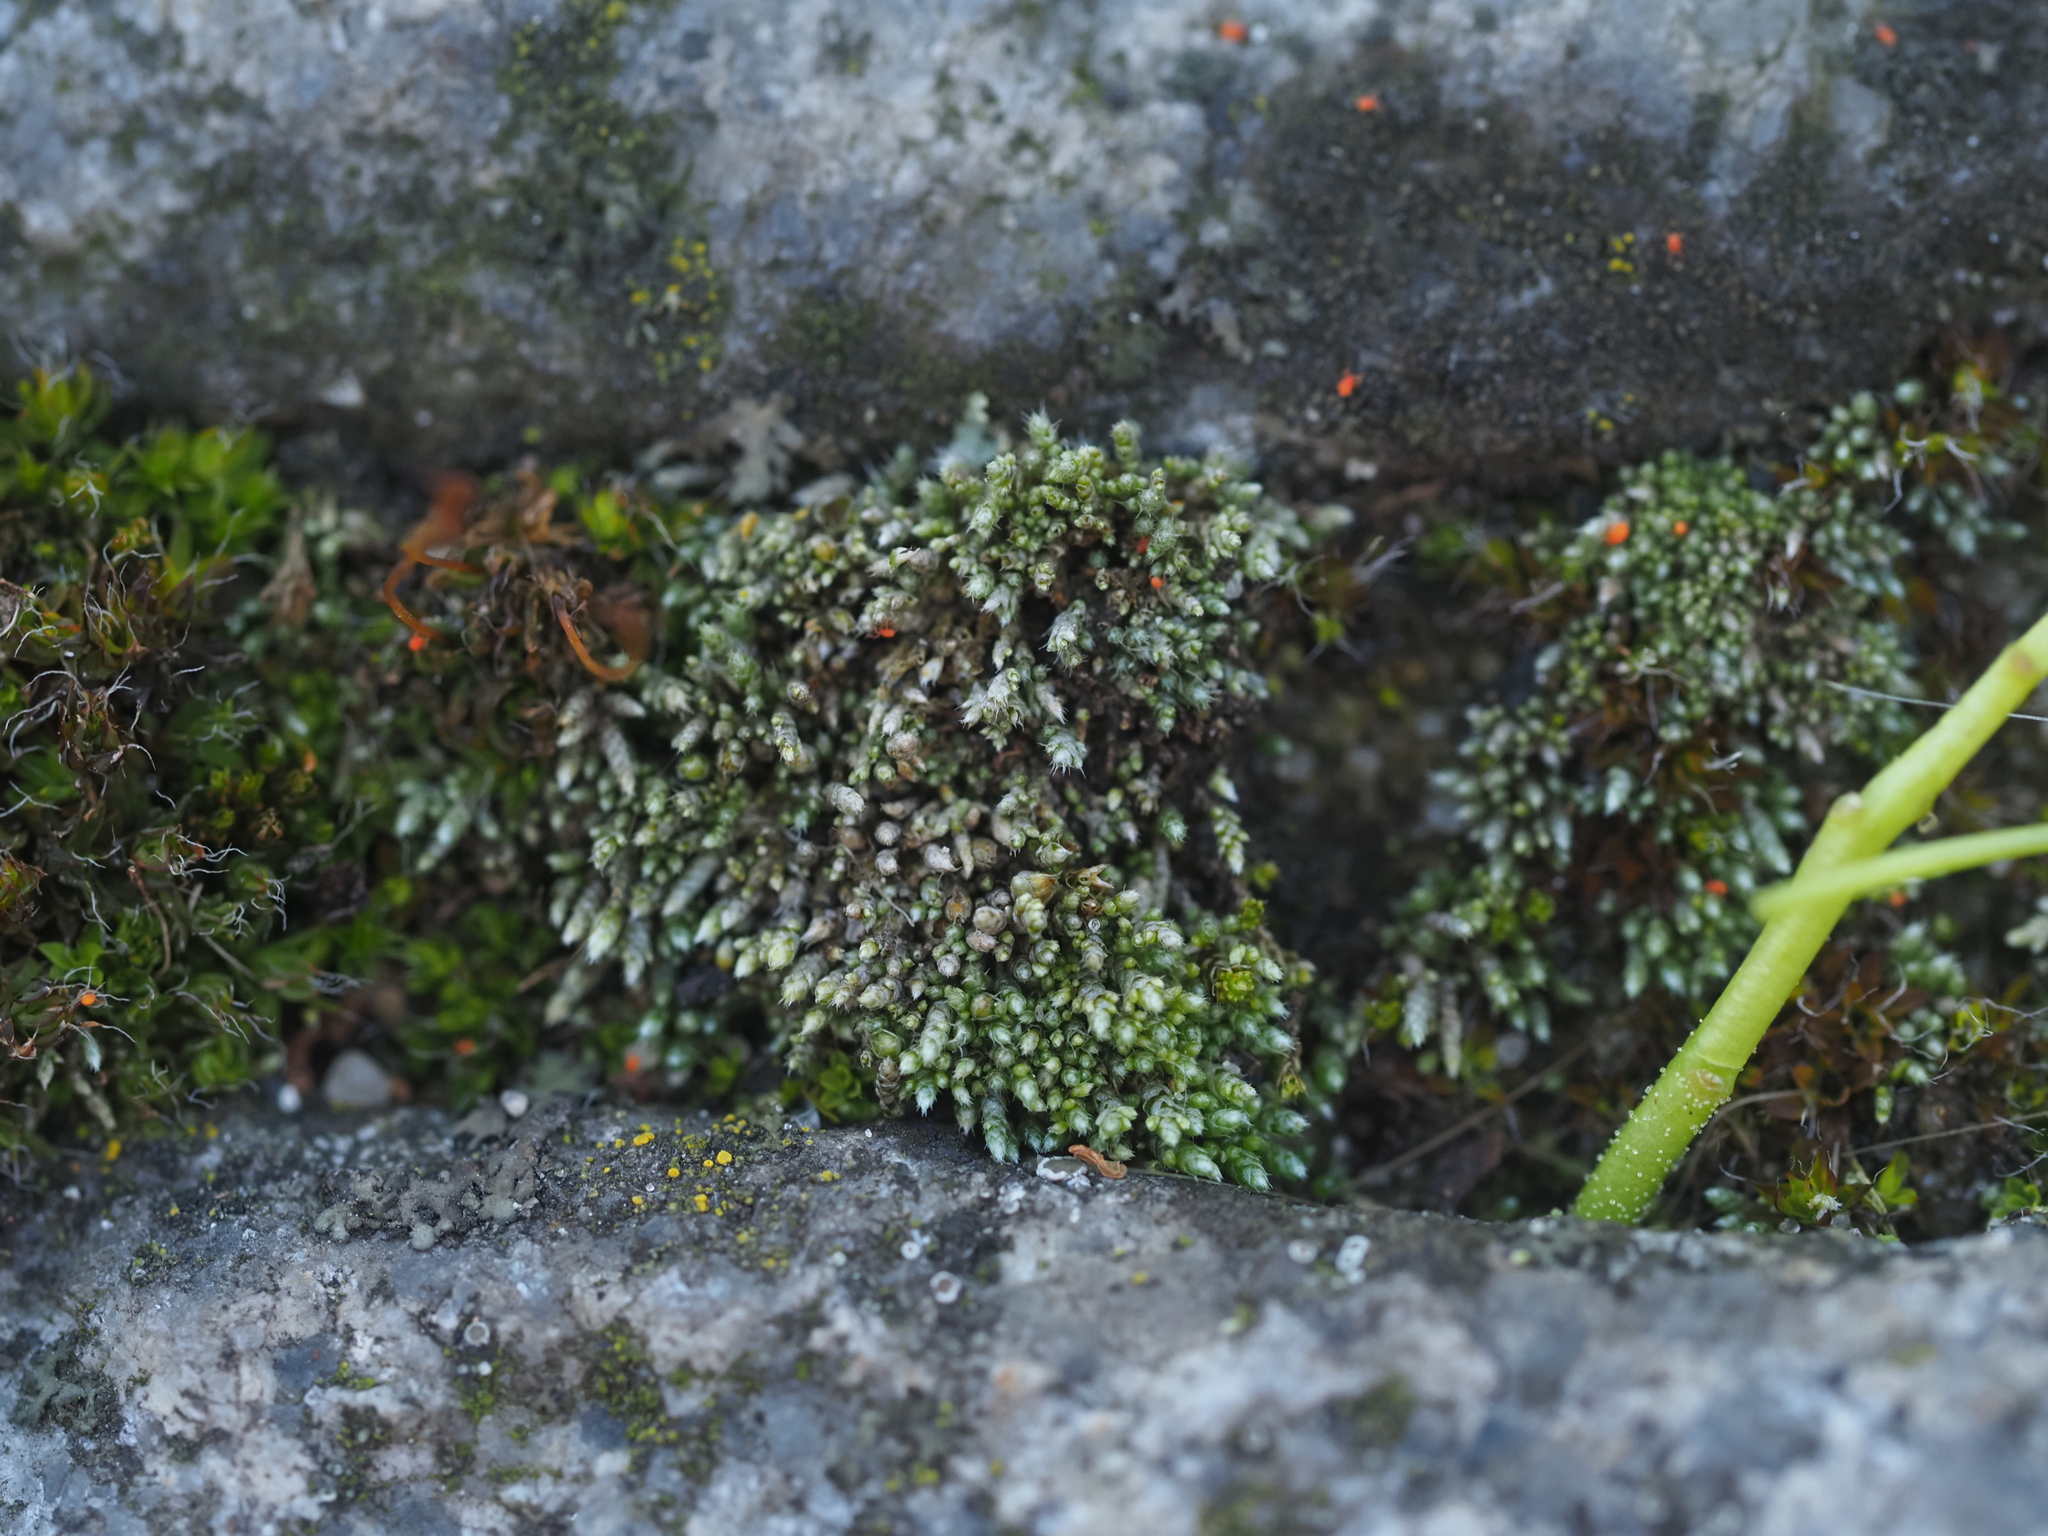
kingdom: Plantae
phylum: Bryophyta
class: Bryopsida
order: Bryales
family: Bryaceae
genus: Bryum
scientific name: Bryum argenteum
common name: Silver-moss
